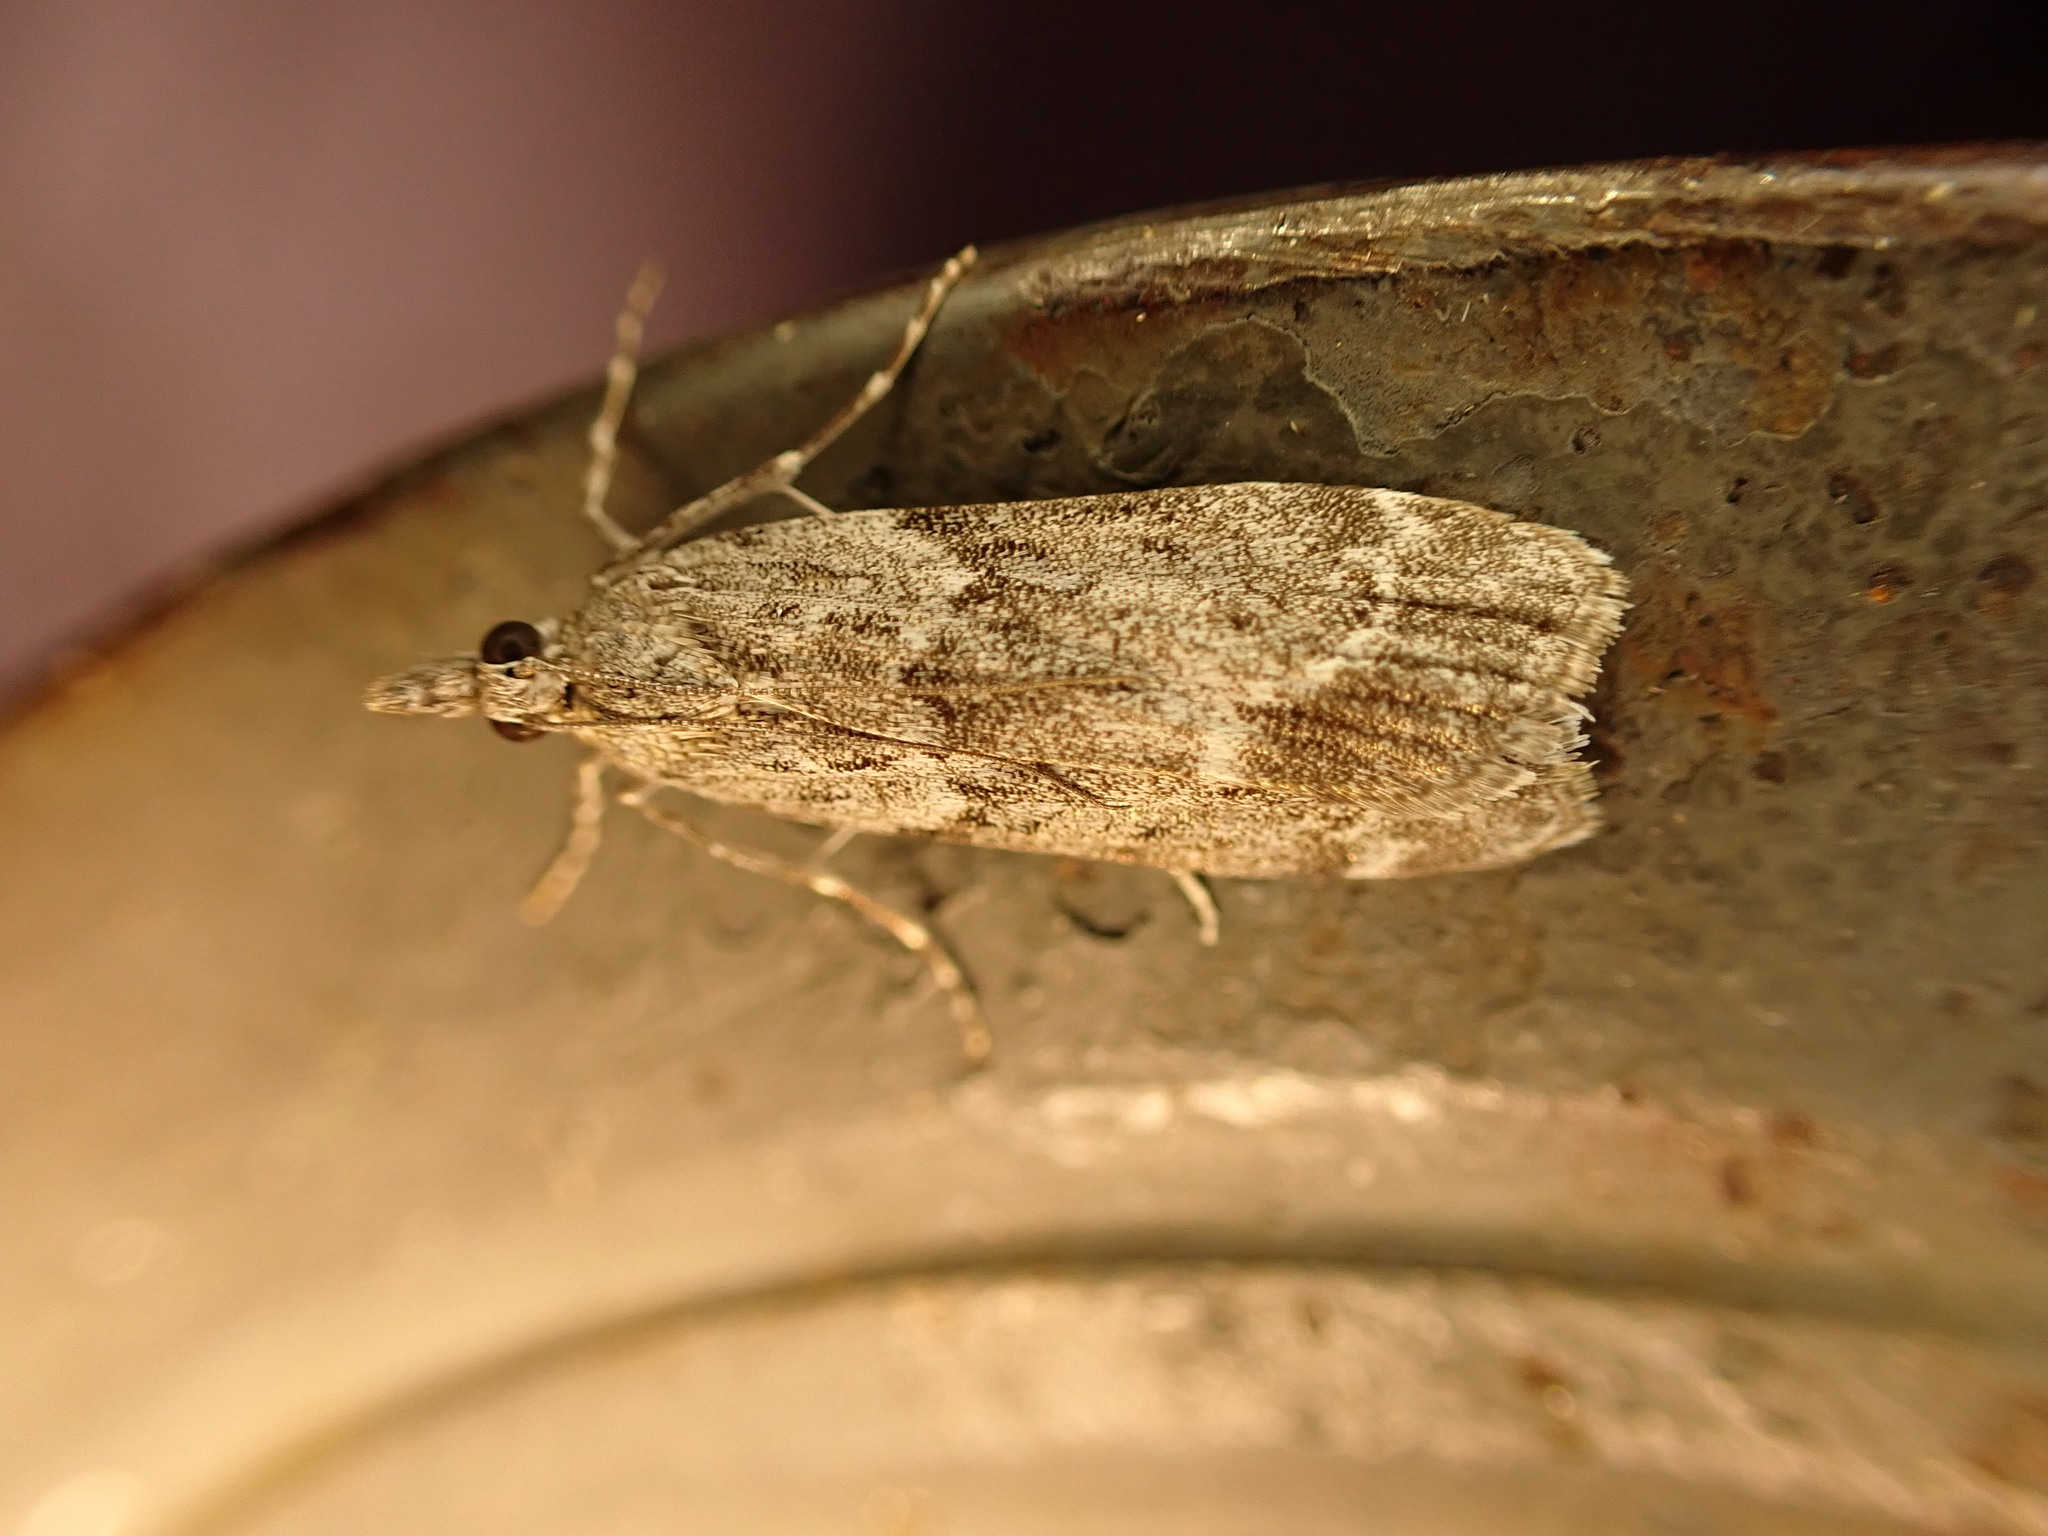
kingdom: Animalia
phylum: Arthropoda
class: Insecta
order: Lepidoptera
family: Crambidae
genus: Eudonia
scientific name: Eudonia submarginalis
